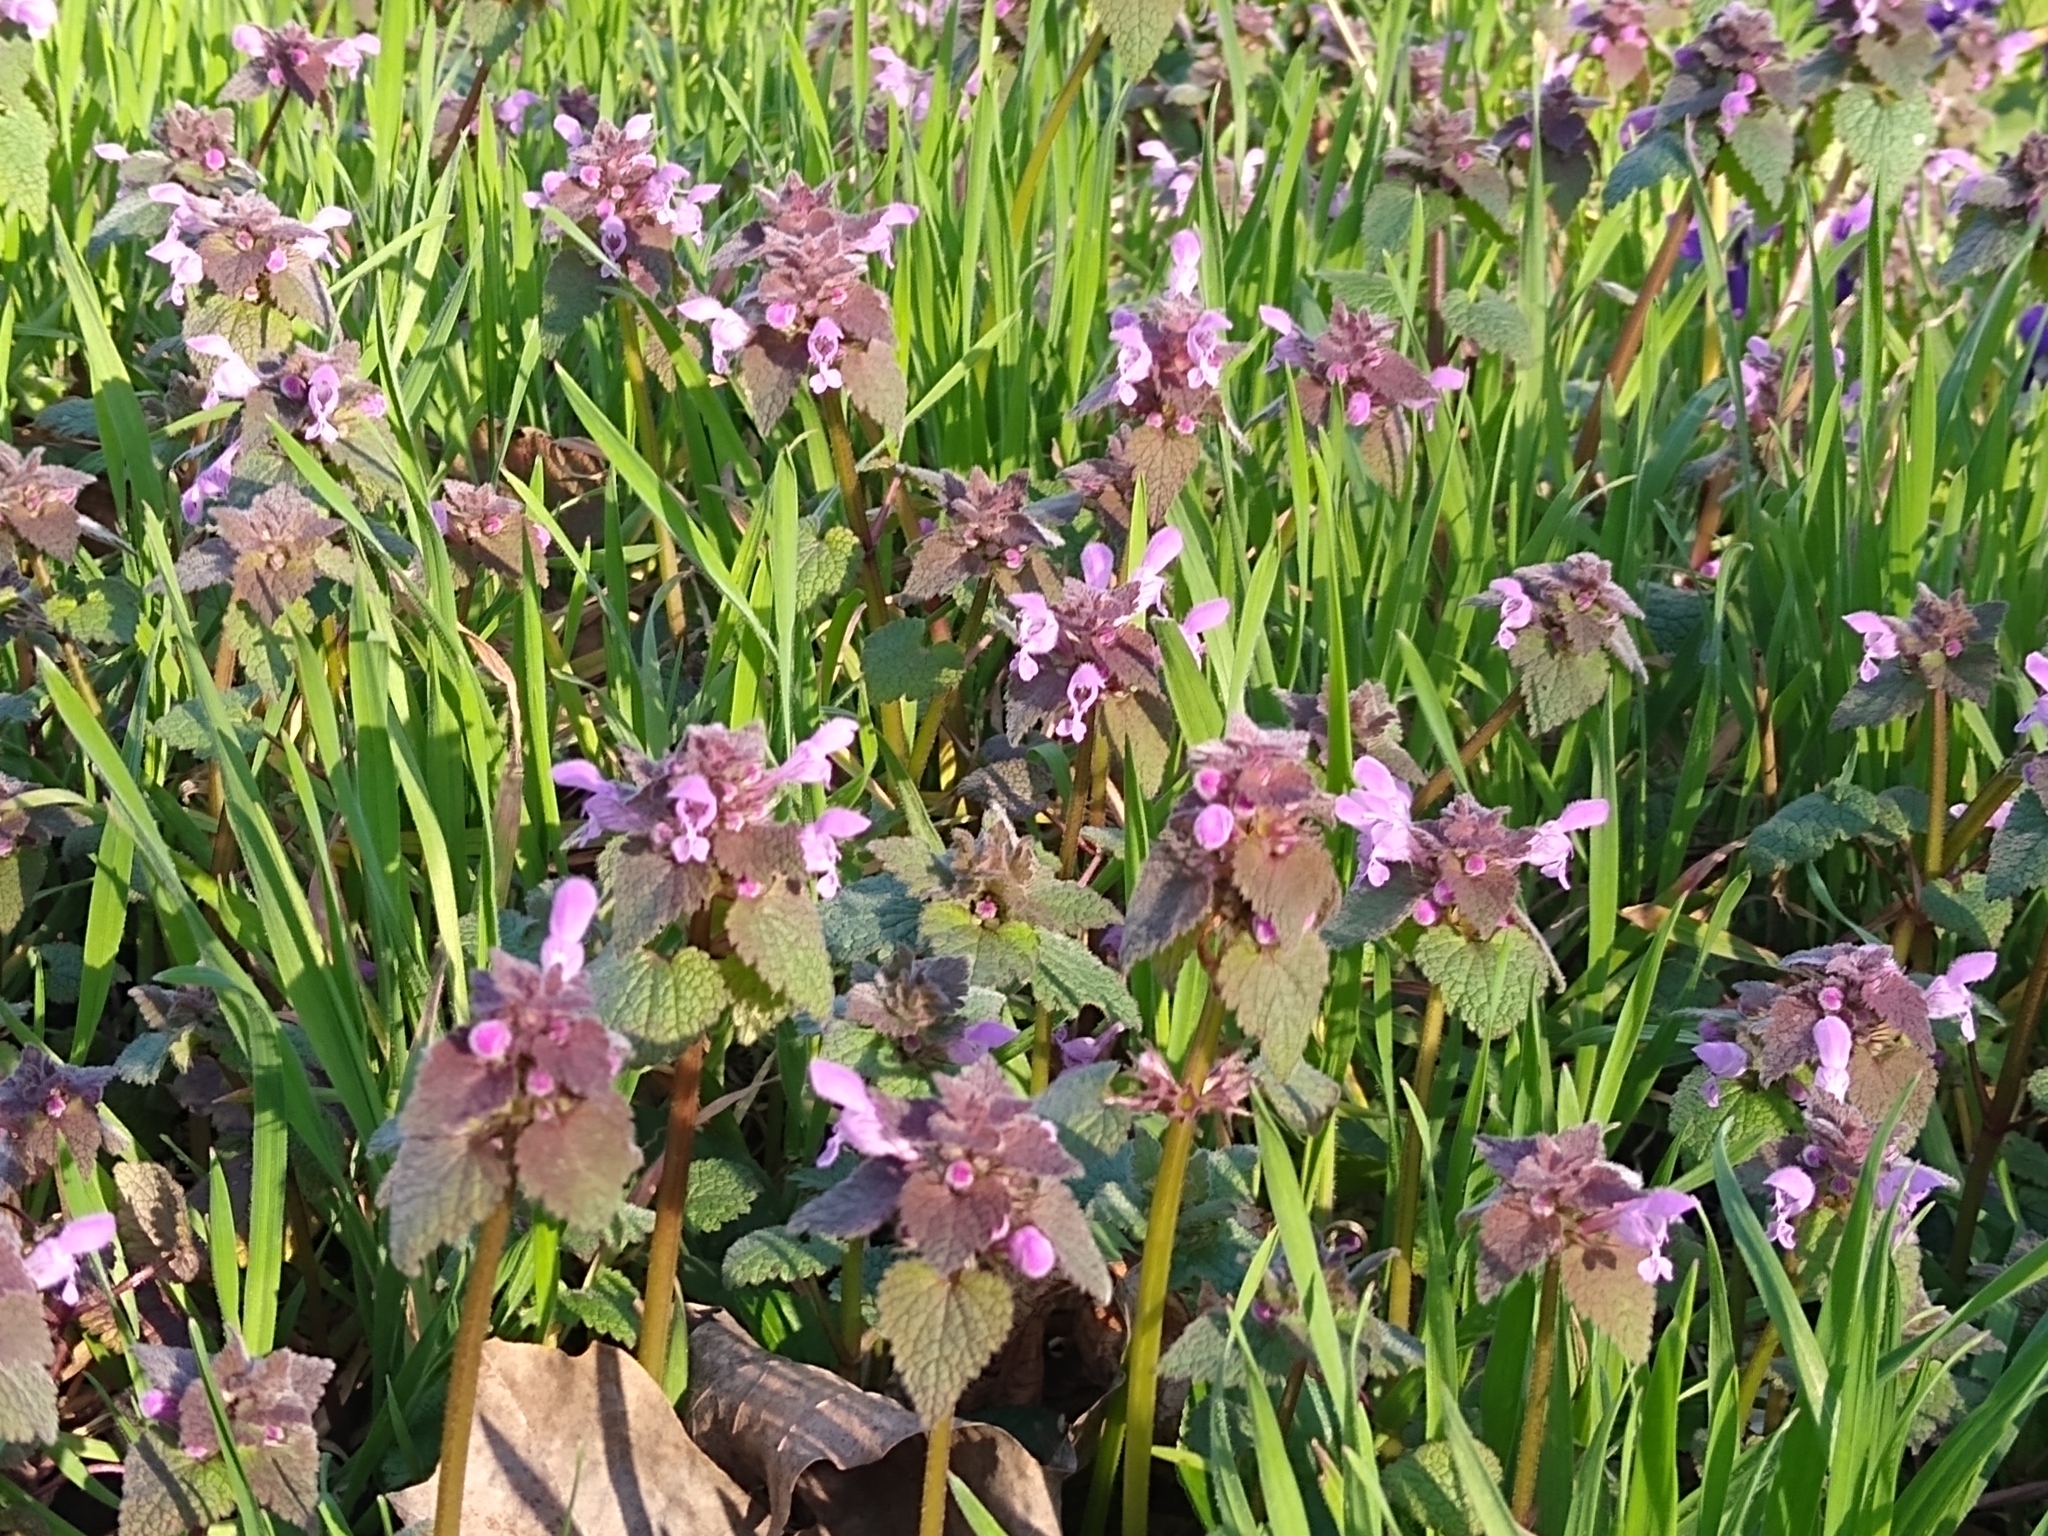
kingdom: Plantae
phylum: Tracheophyta
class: Magnoliopsida
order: Lamiales
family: Lamiaceae
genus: Lamium
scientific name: Lamium purpureum
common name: Red dead-nettle
